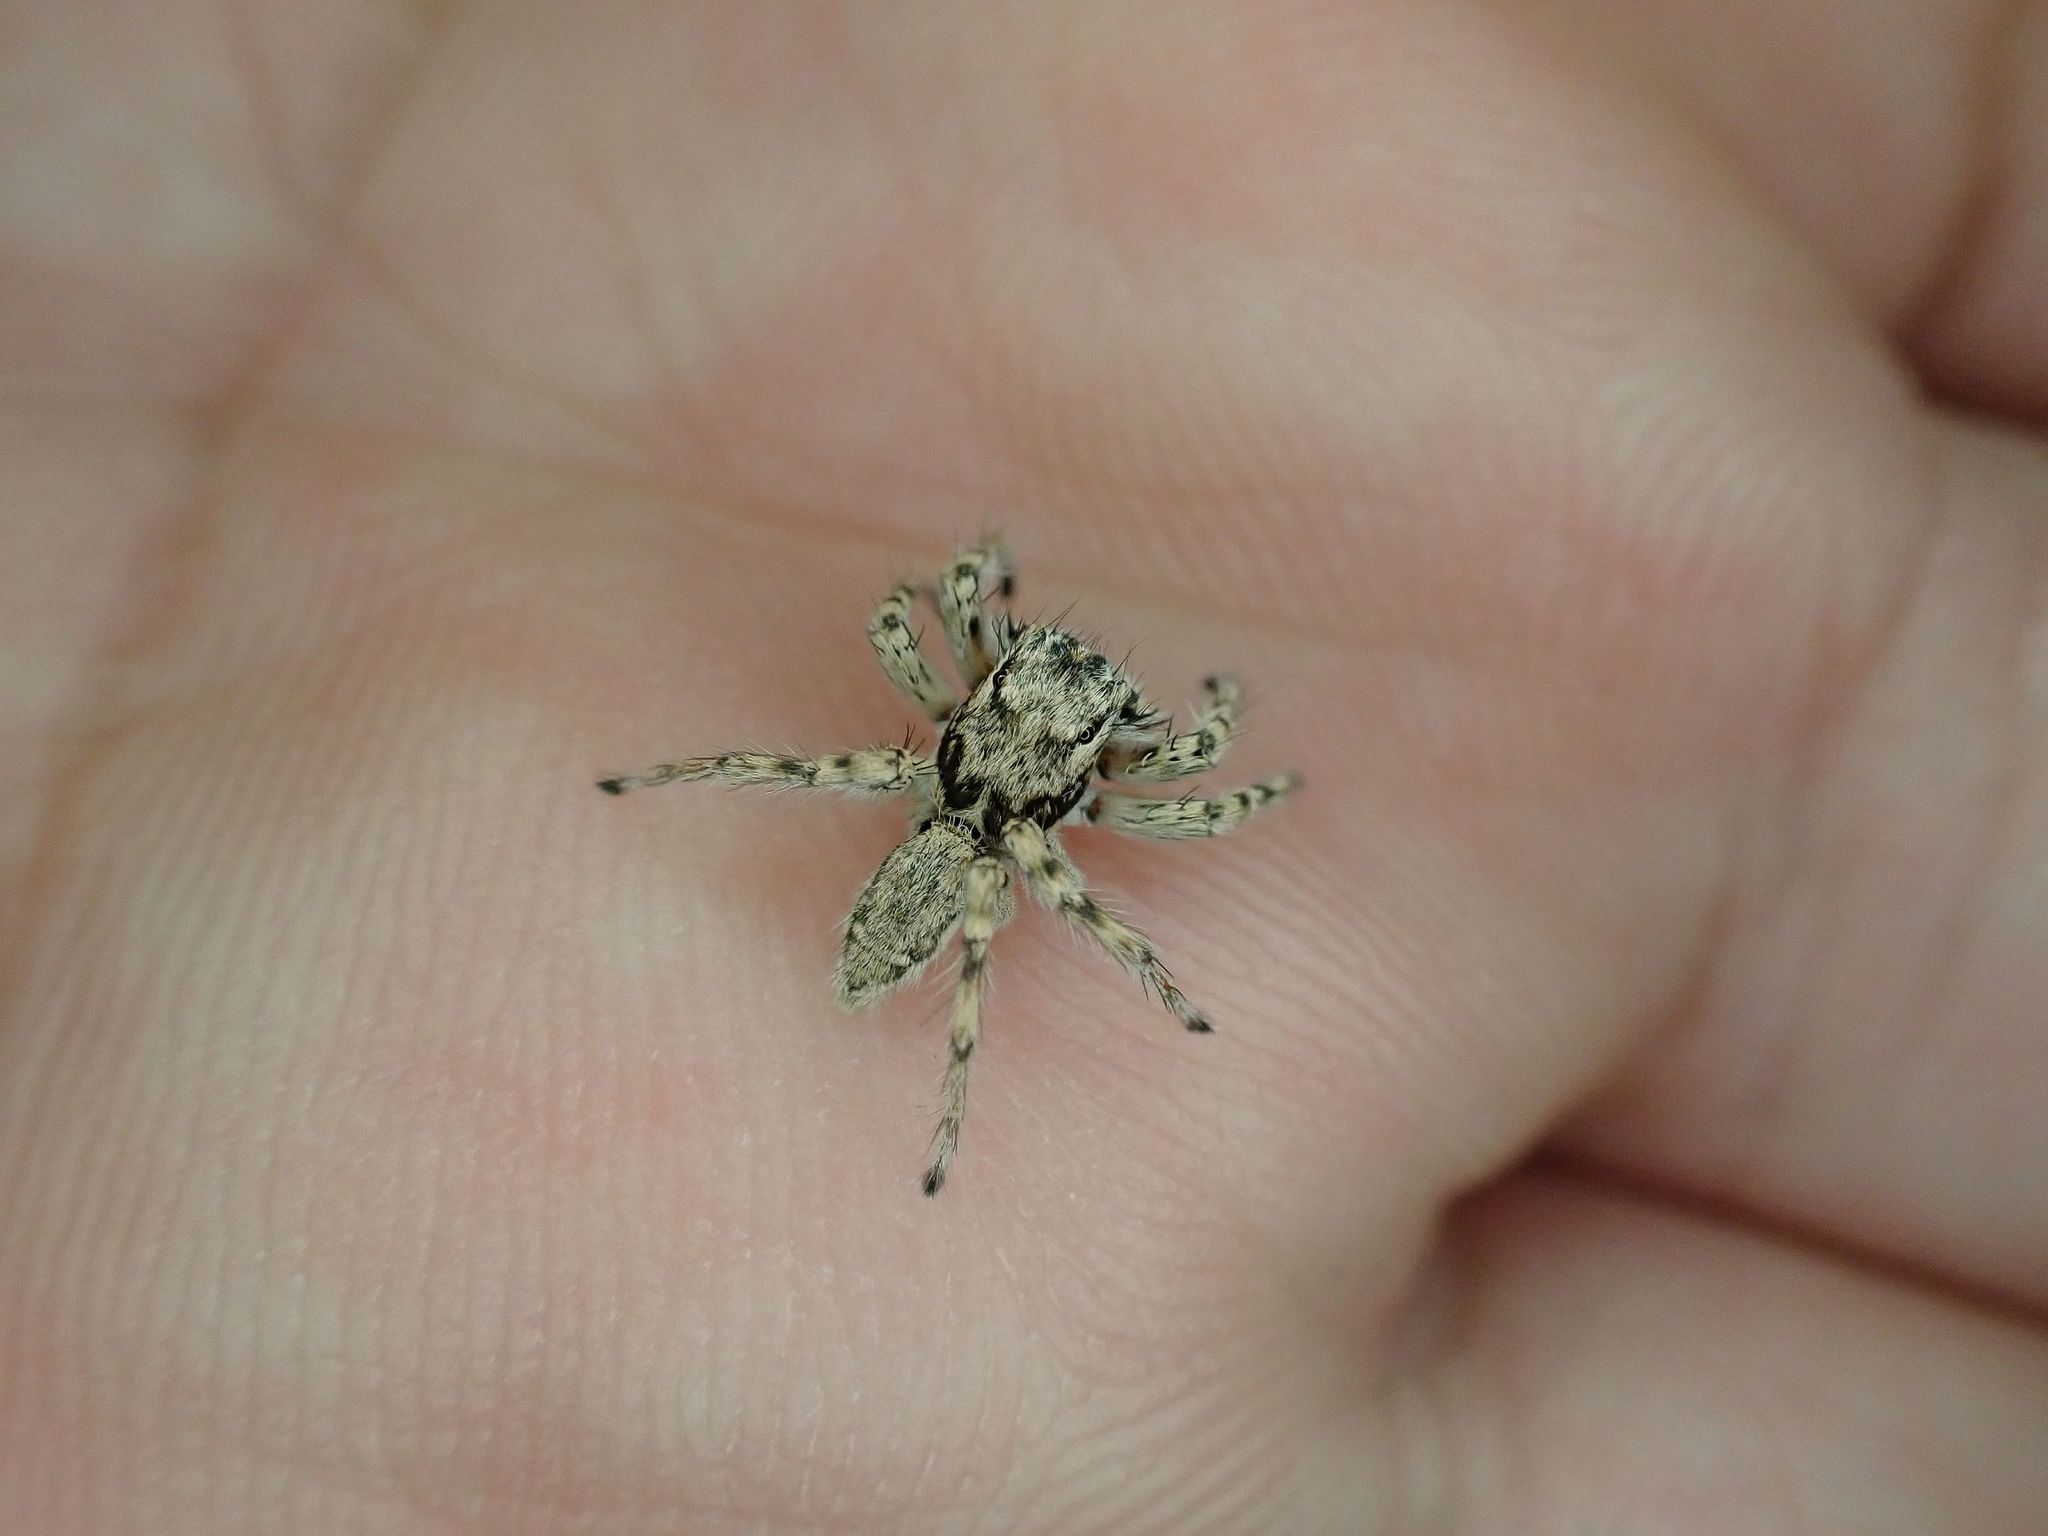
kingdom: Animalia
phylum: Arthropoda
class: Arachnida
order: Araneae
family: Salticidae
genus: Plexippoides
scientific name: Plexippoides flavescens
